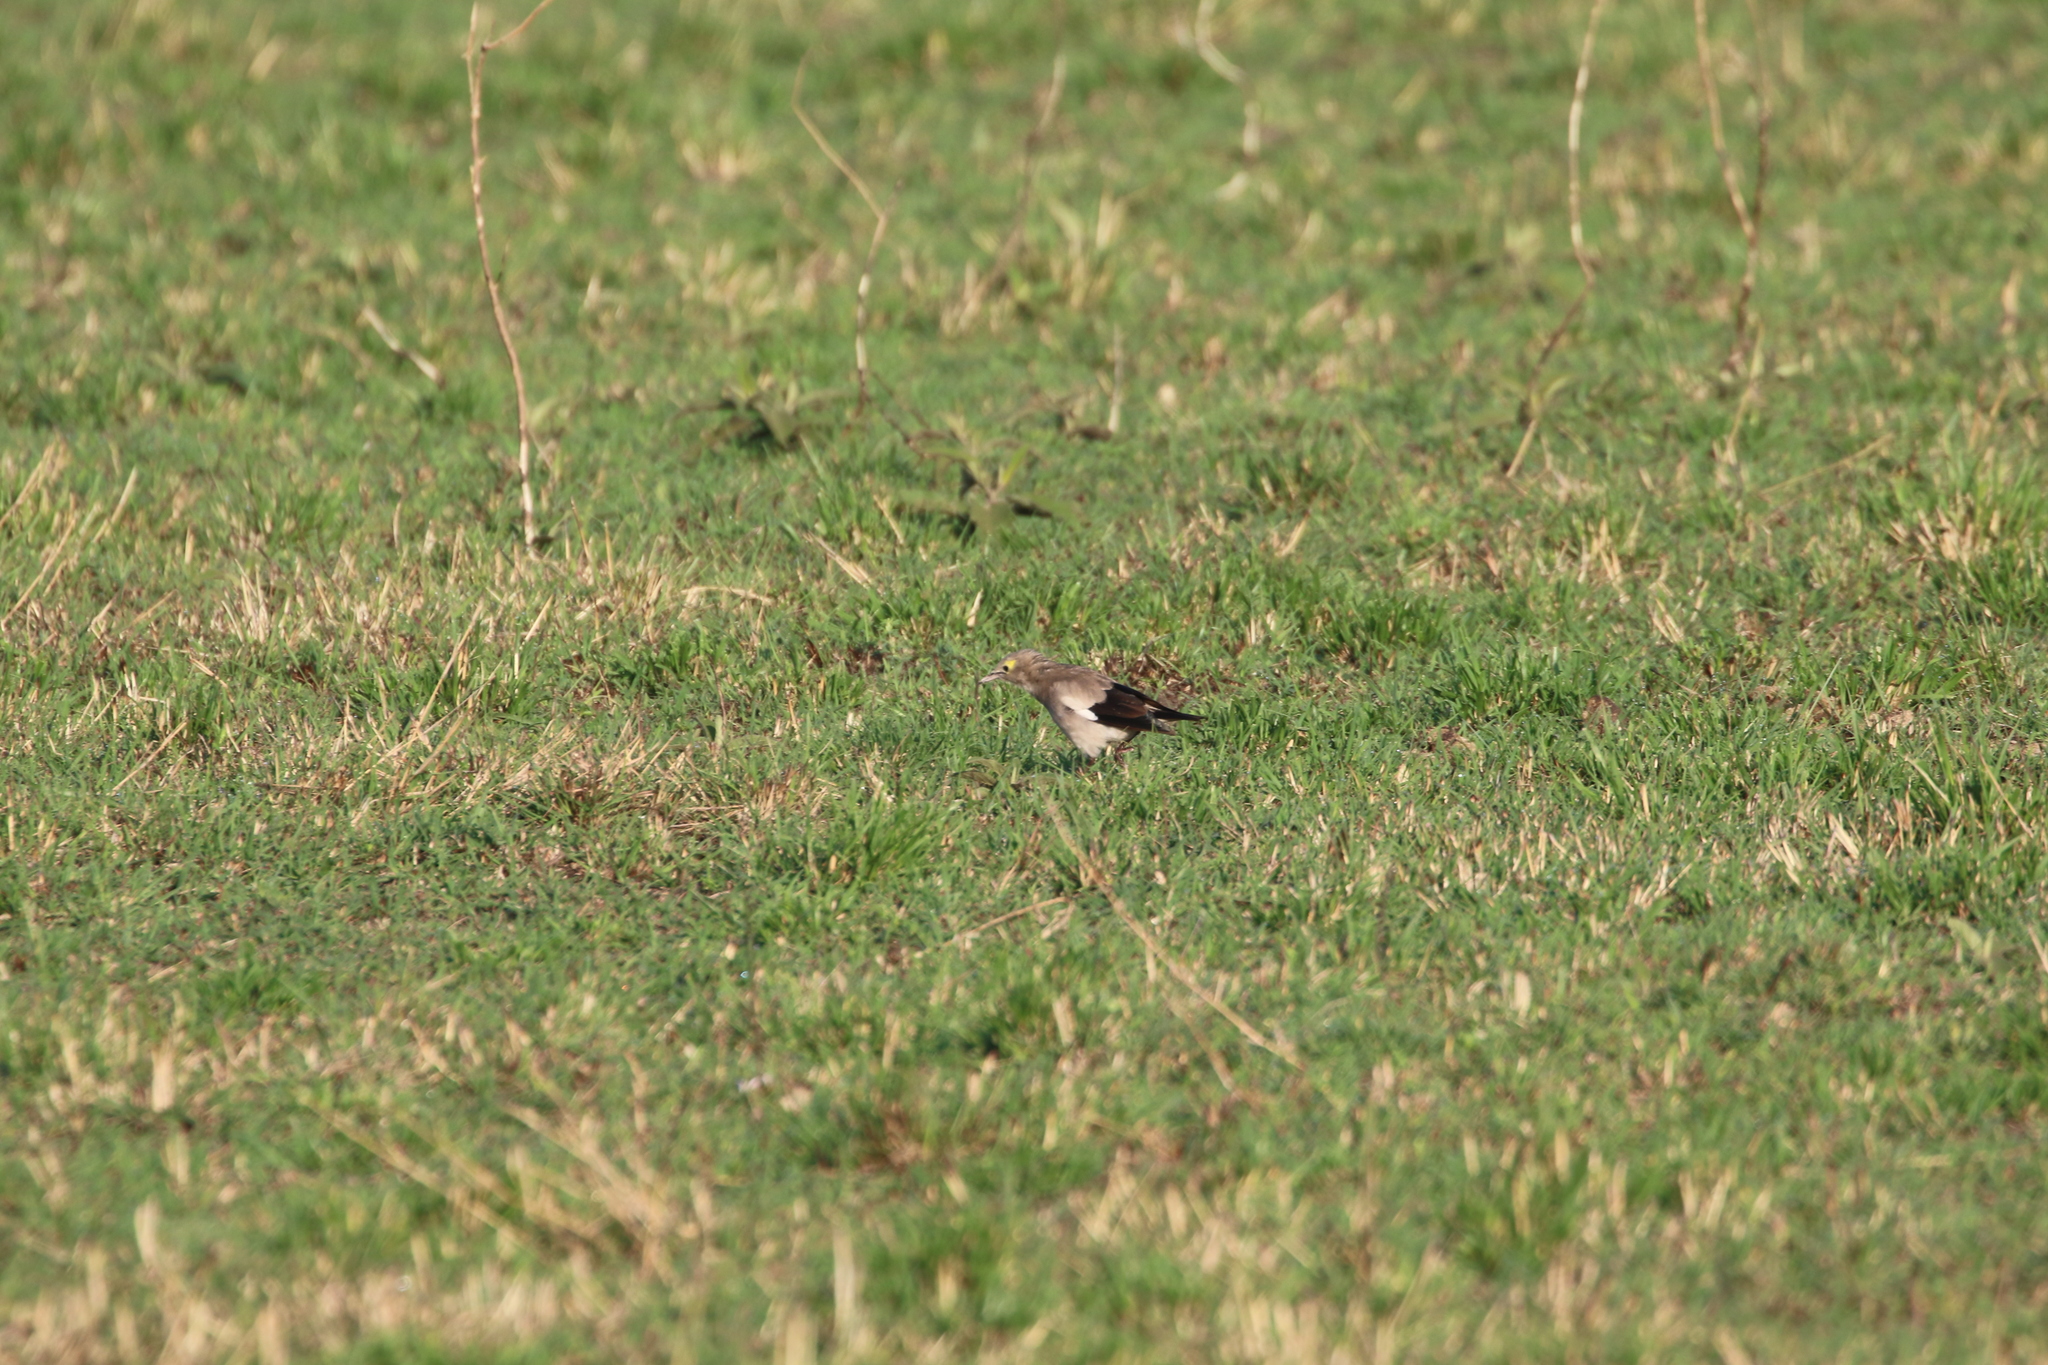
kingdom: Animalia
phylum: Chordata
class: Aves
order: Passeriformes
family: Sturnidae
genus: Creatophora
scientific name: Creatophora cinerea
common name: Wattled starling
